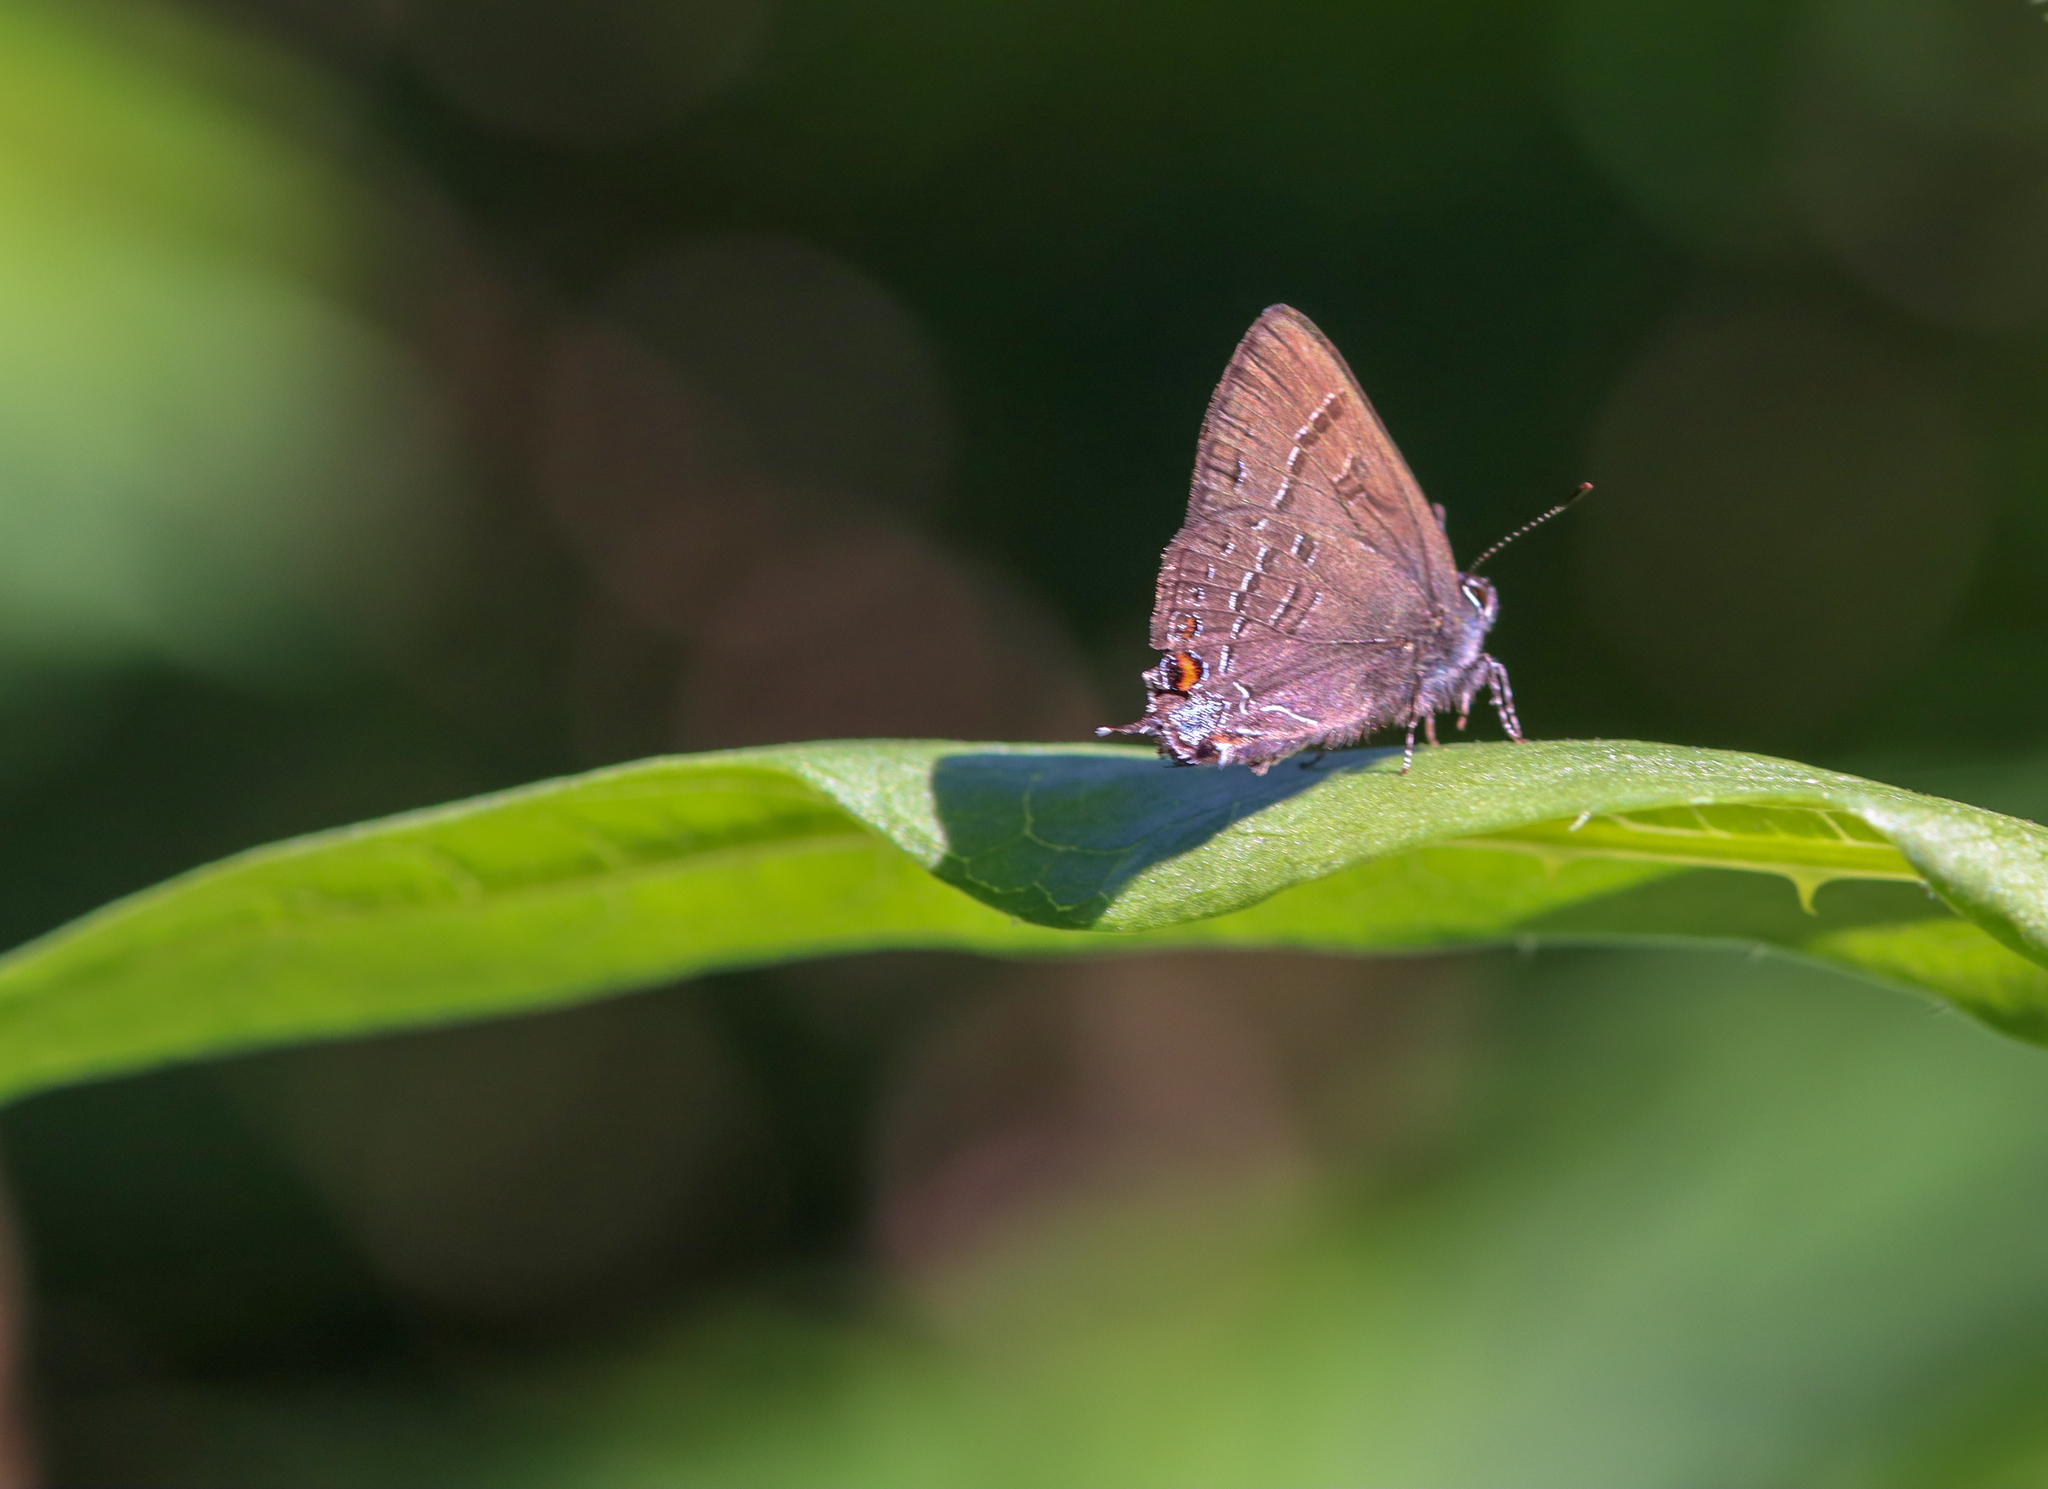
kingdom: Animalia
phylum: Arthropoda
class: Insecta
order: Lepidoptera
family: Lycaenidae
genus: Satyrium
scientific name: Satyrium calanus
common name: Banded hairstreak
